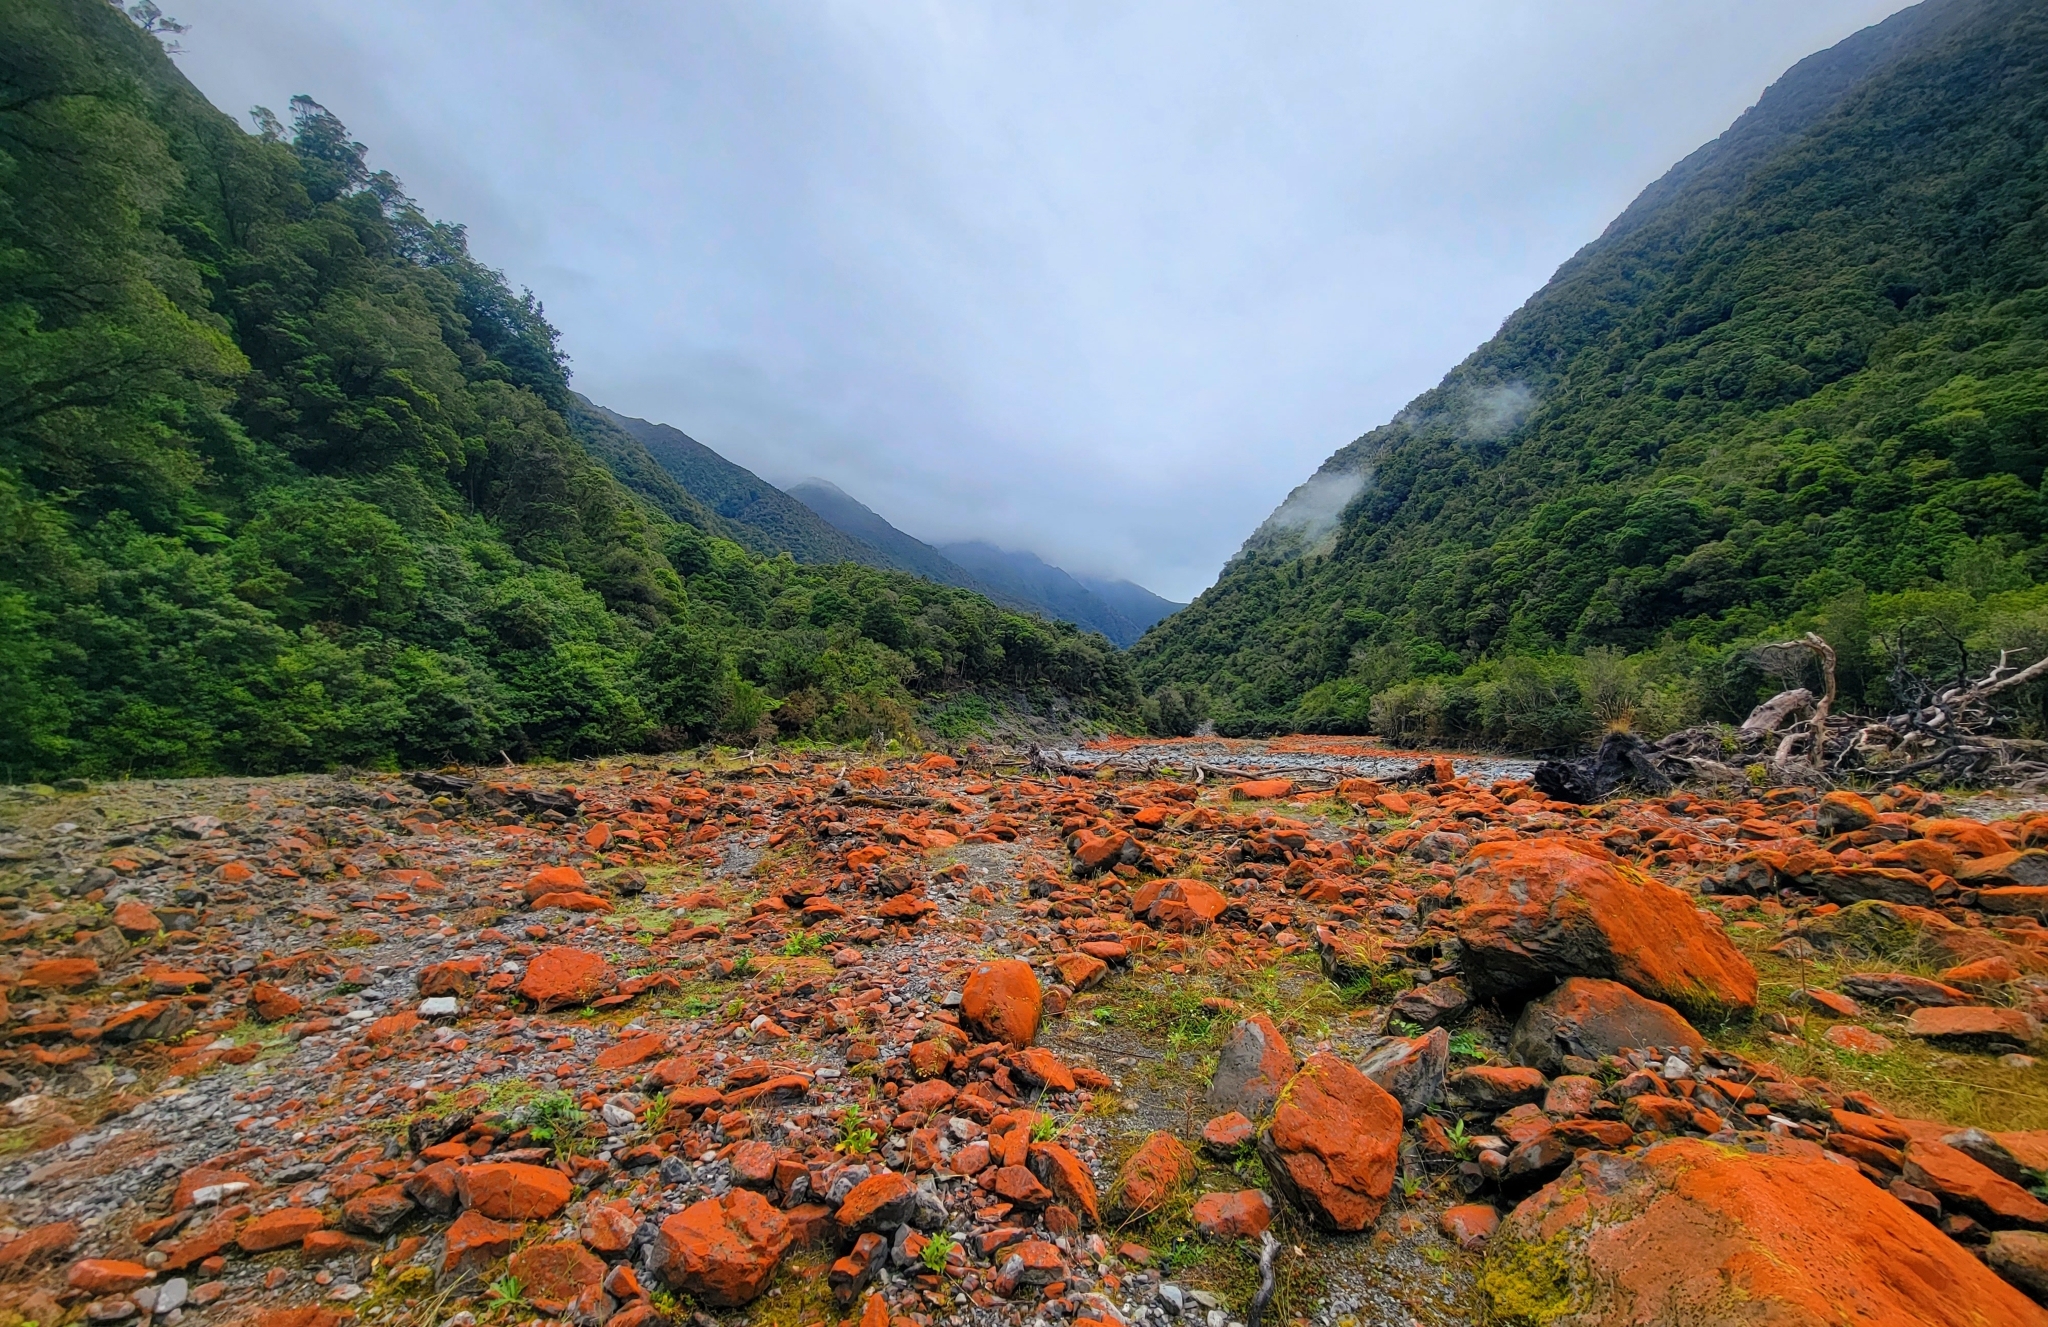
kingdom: Plantae
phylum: Chlorophyta
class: Ulvophyceae
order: Trentepohliales
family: Trentepohliaceae
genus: Trentepohlia
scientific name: Trentepohlia aurea
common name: Orange rock hair
